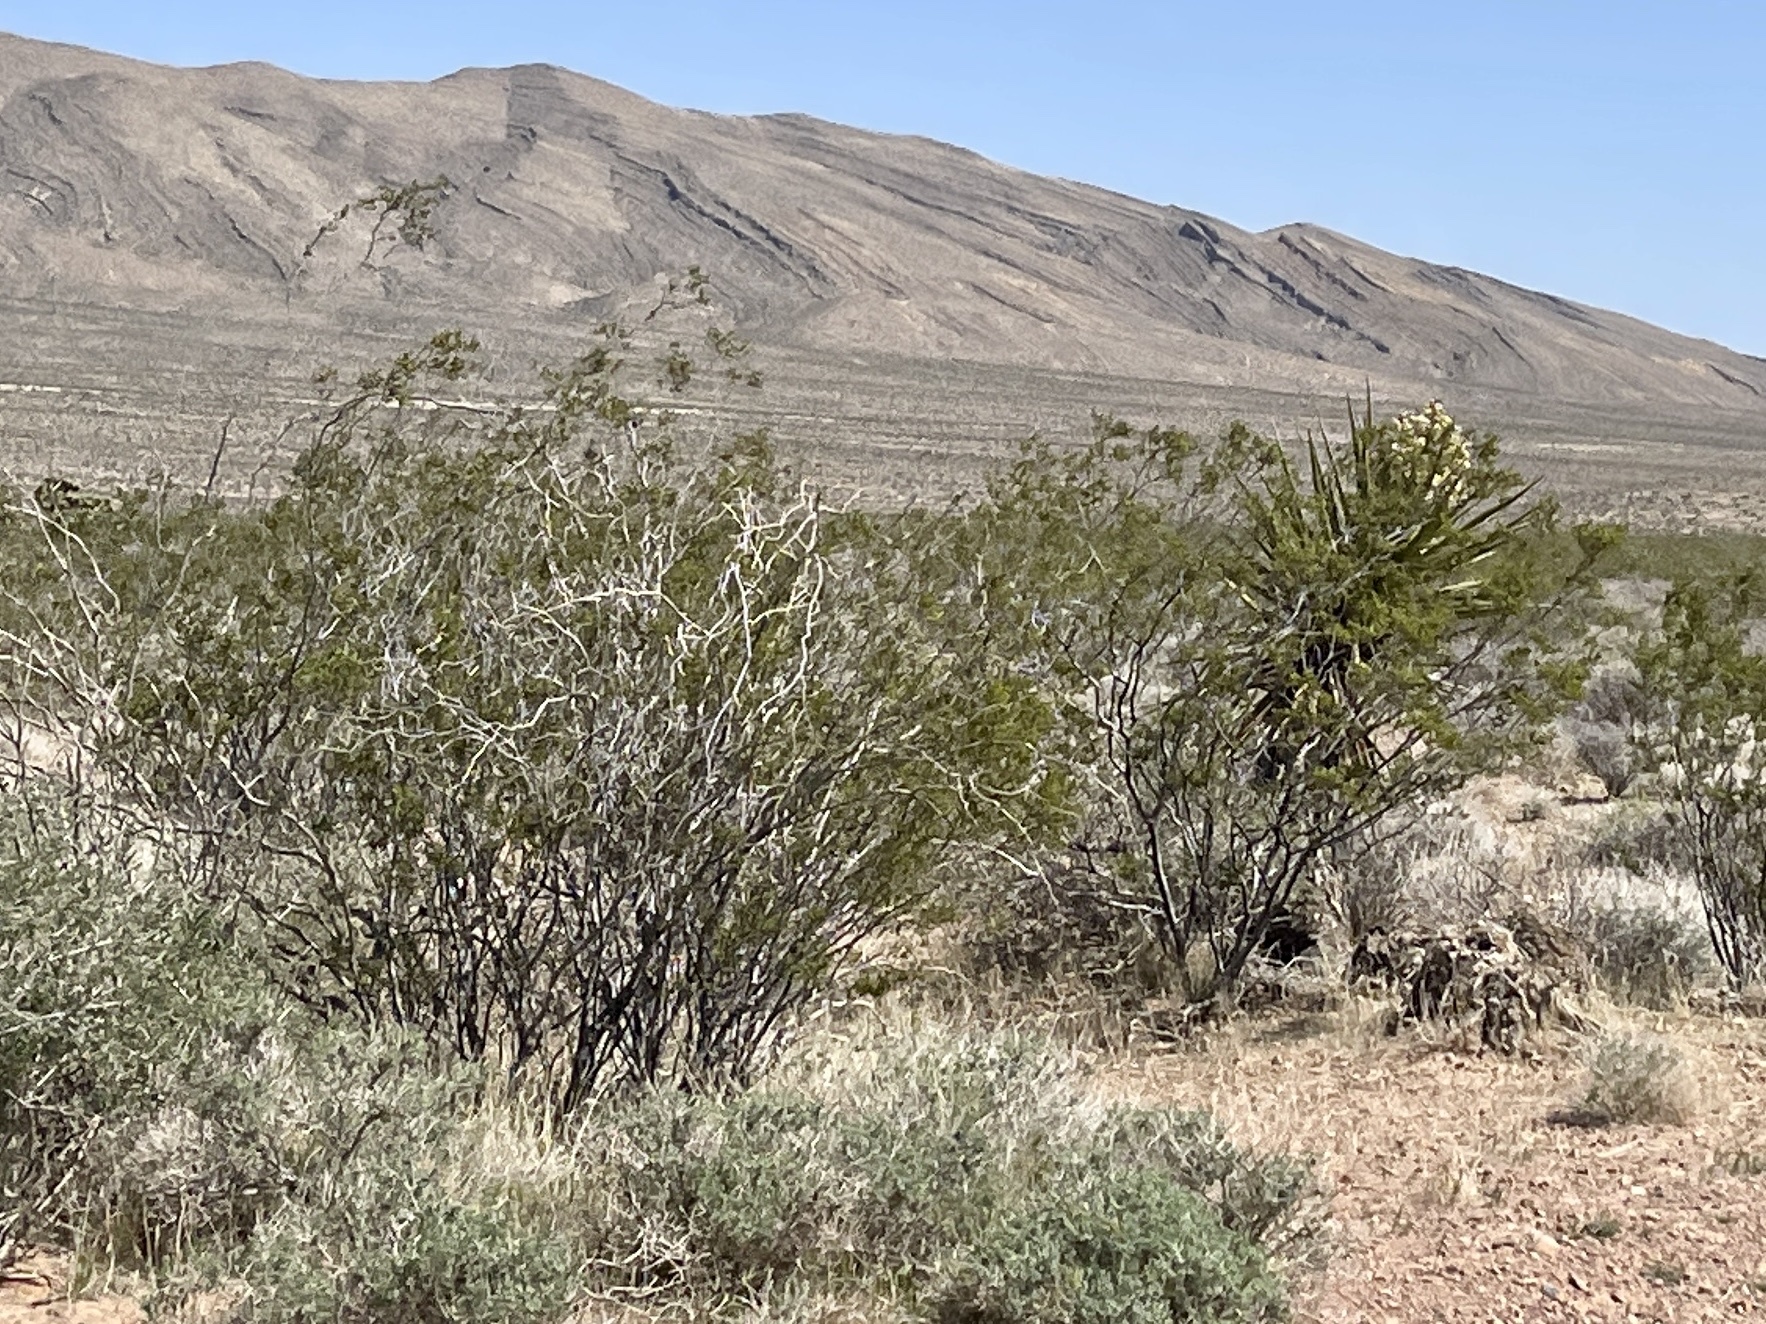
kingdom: Plantae
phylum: Tracheophyta
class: Magnoliopsida
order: Zygophyllales
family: Zygophyllaceae
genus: Larrea
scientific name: Larrea tridentata
